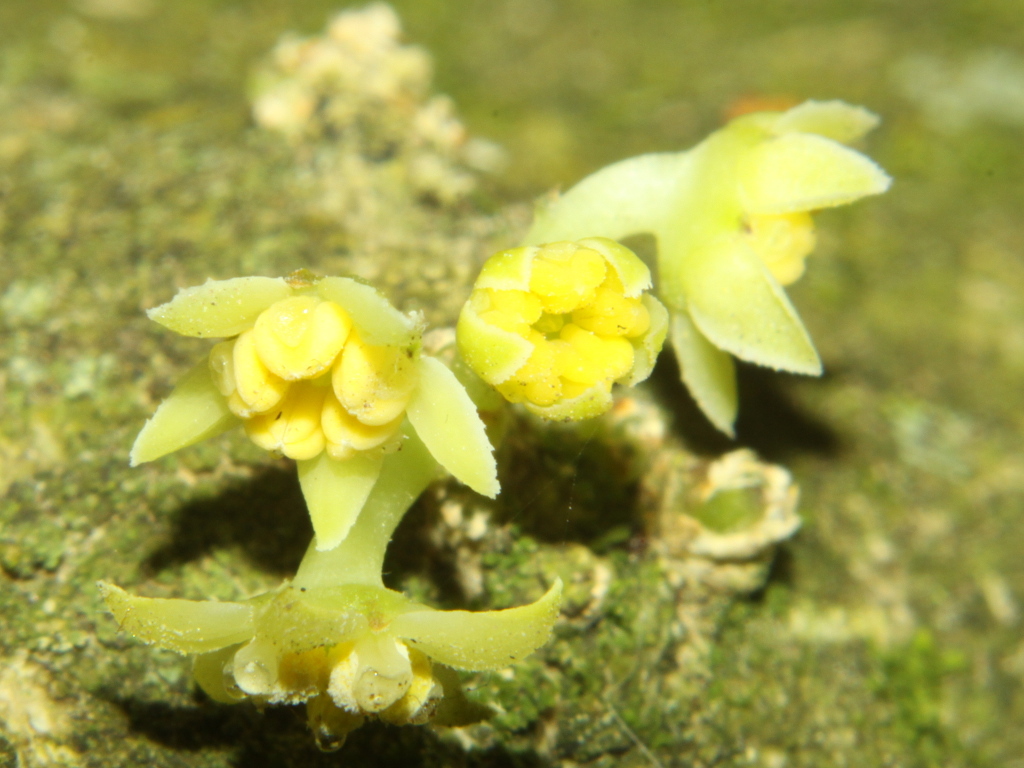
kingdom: Plantae
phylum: Tracheophyta
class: Magnoliopsida
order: Malpighiales
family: Violaceae
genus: Melicytus
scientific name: Melicytus ramiflorus
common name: Mahoe
